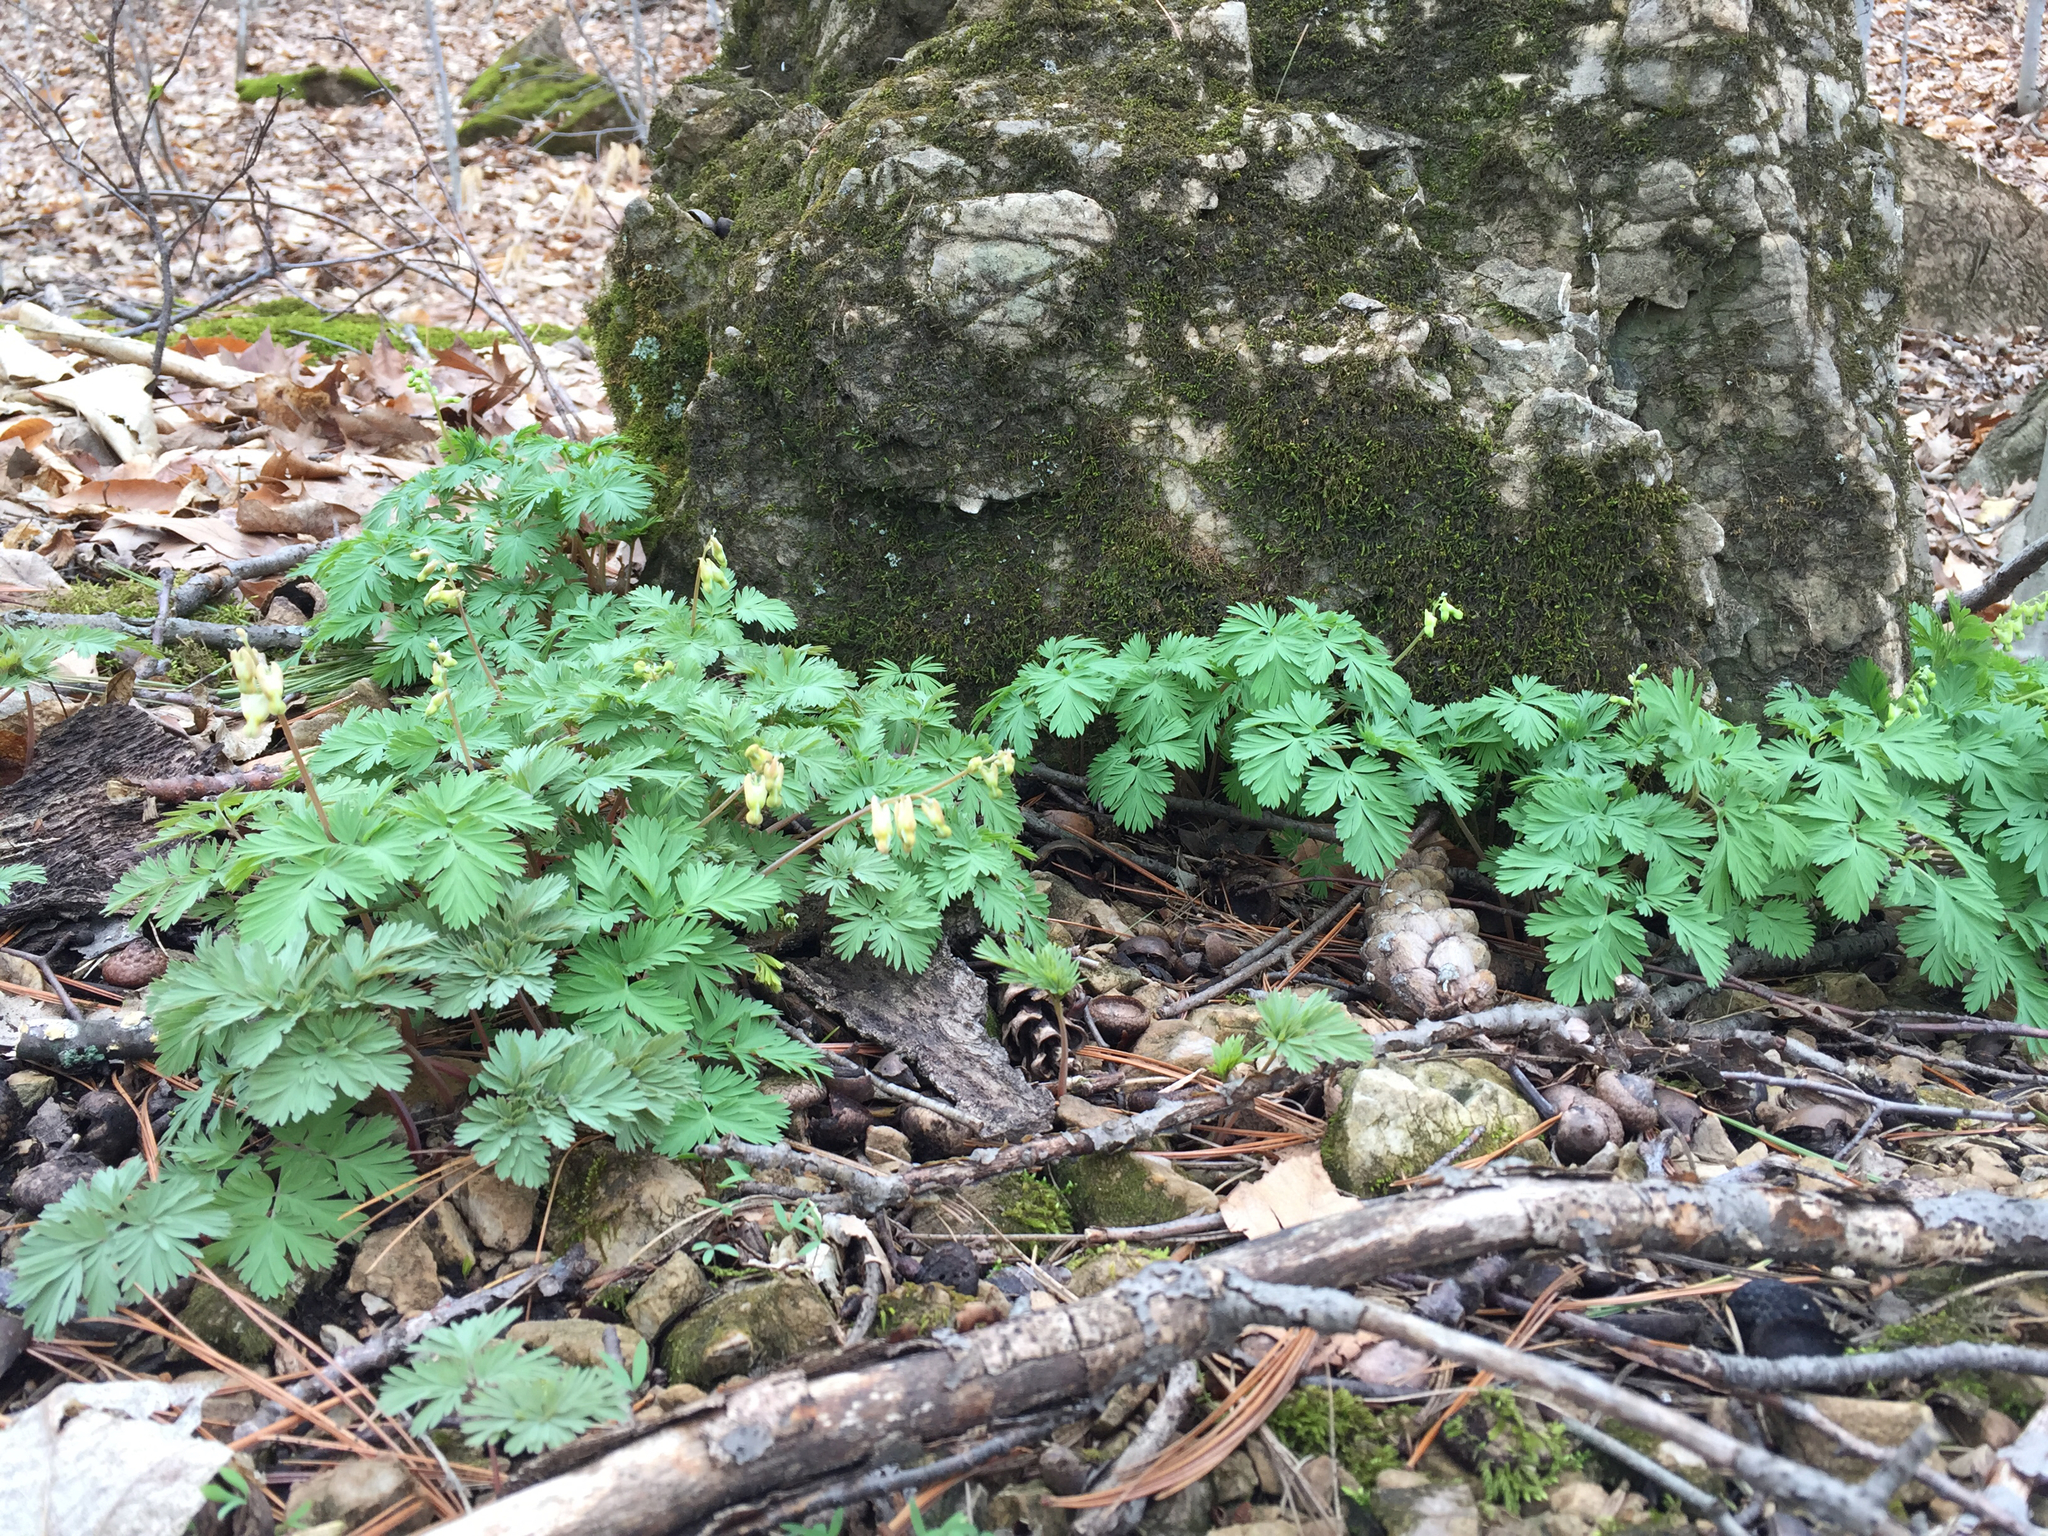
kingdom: Plantae
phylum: Tracheophyta
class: Magnoliopsida
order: Ranunculales
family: Papaveraceae
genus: Dicentra
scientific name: Dicentra cucullaria
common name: Dutchman's breeches
